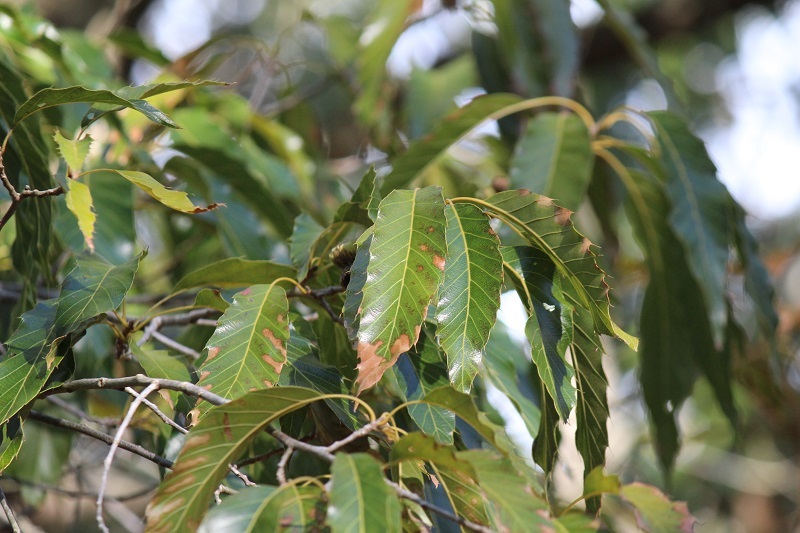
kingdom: Plantae
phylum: Tracheophyta
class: Magnoliopsida
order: Fagales
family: Fagaceae
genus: Quercus
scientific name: Quercus acutissima
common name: Sawtooth oak
